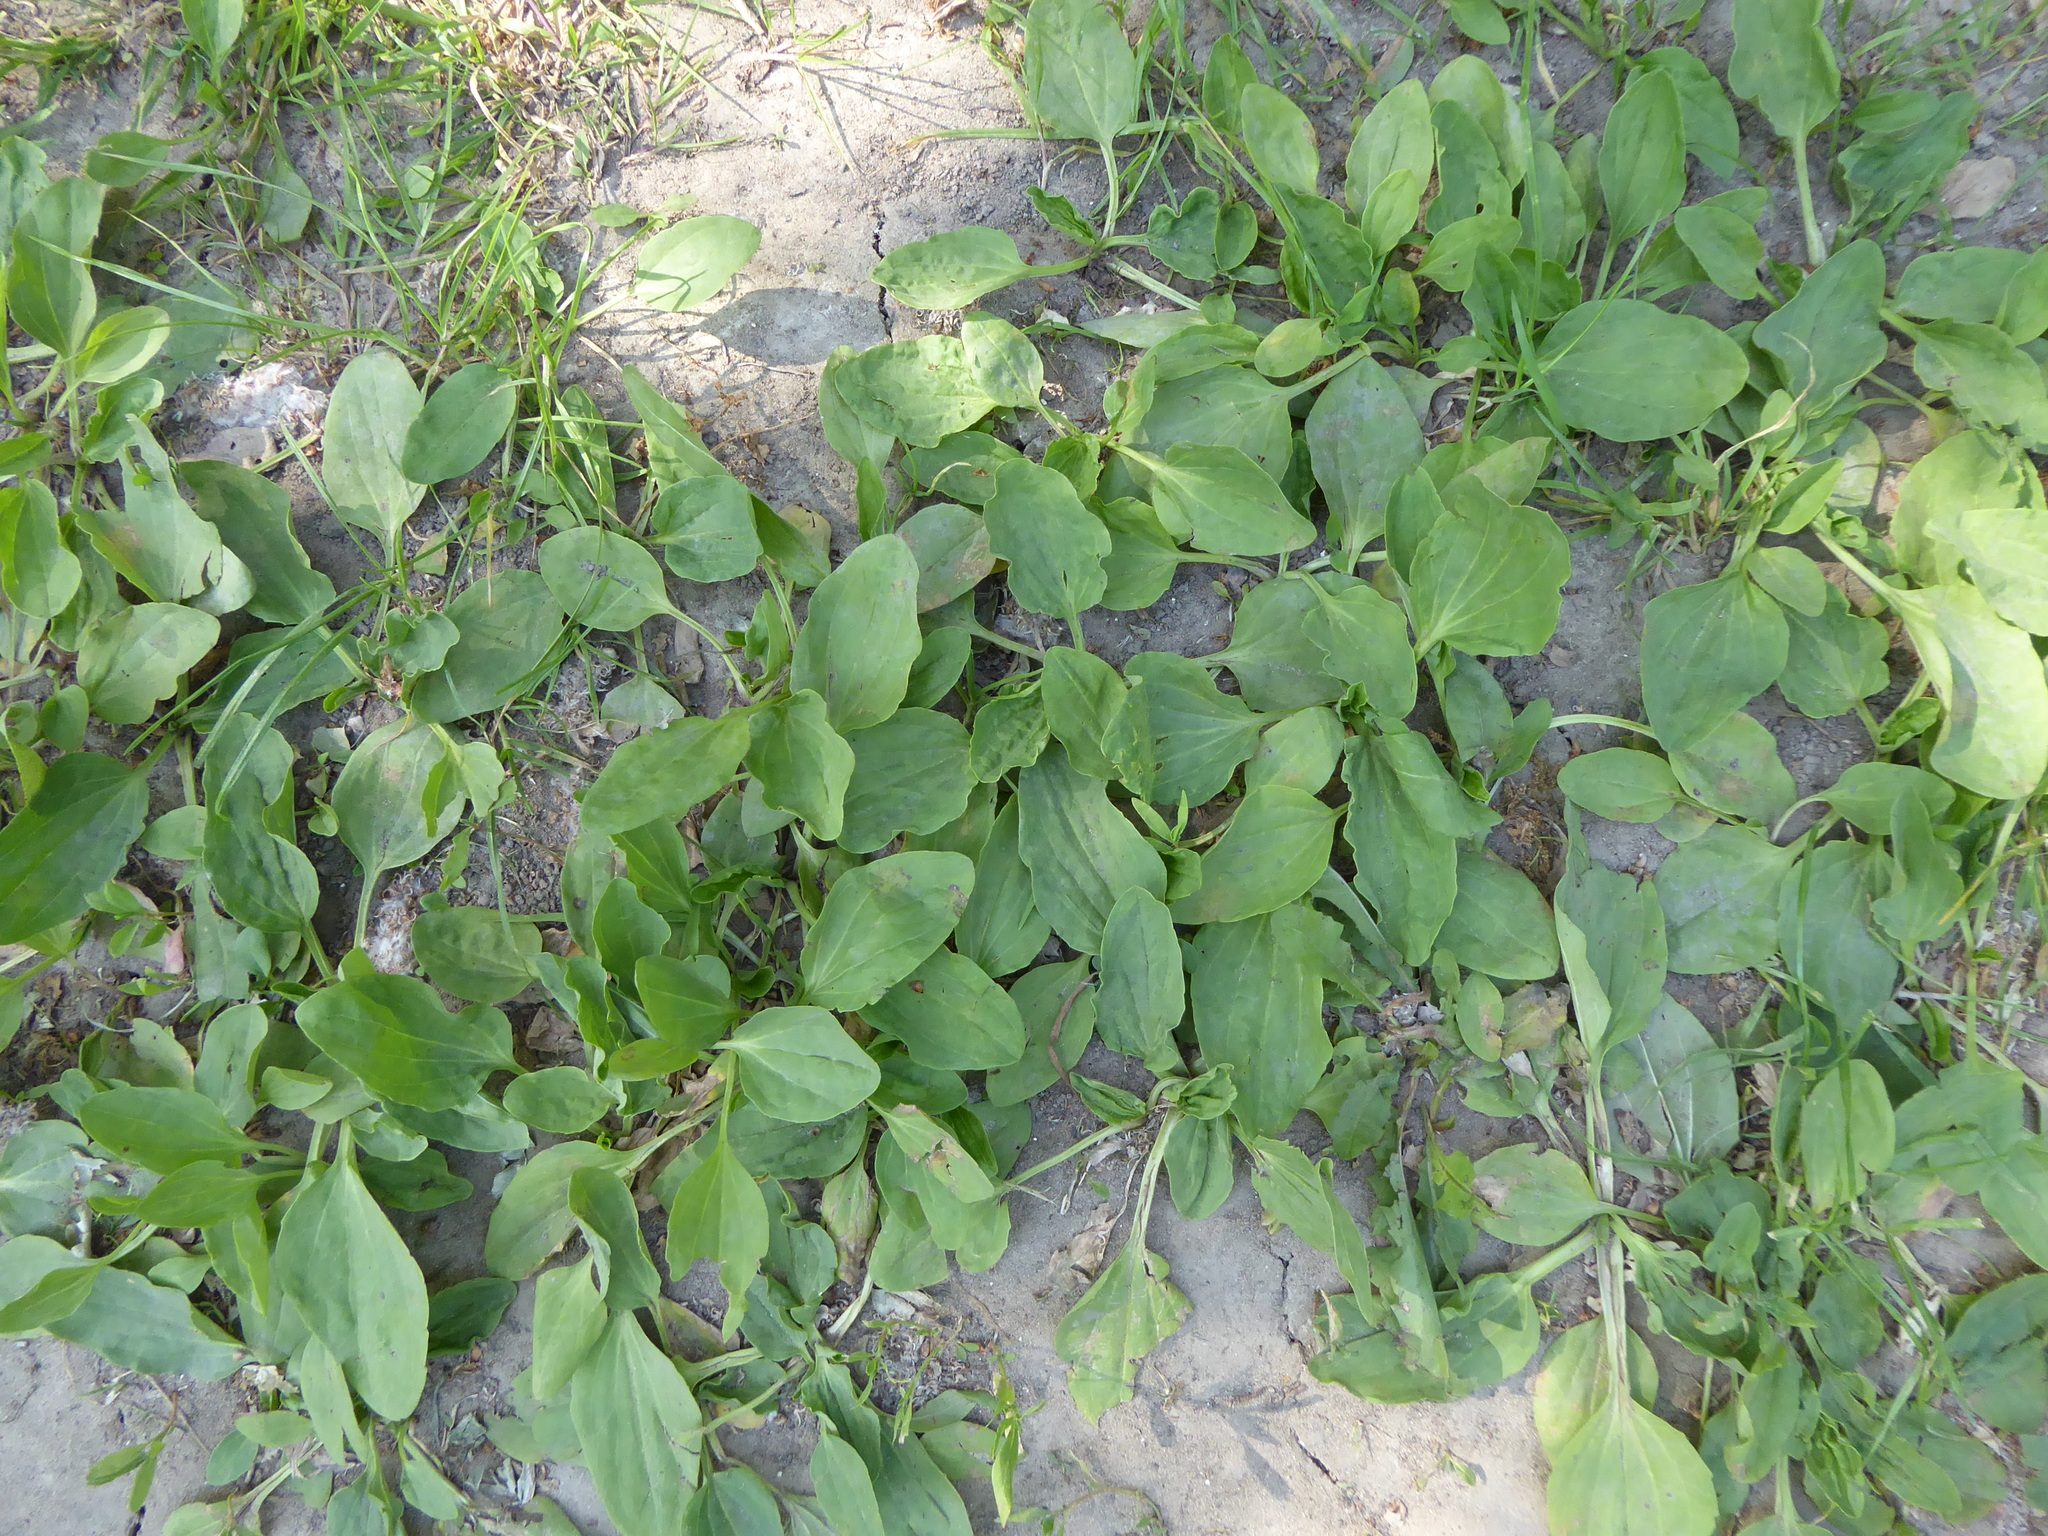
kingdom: Plantae
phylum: Tracheophyta
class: Magnoliopsida
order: Lamiales
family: Plantaginaceae
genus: Plantago
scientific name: Plantago major
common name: Common plantain
